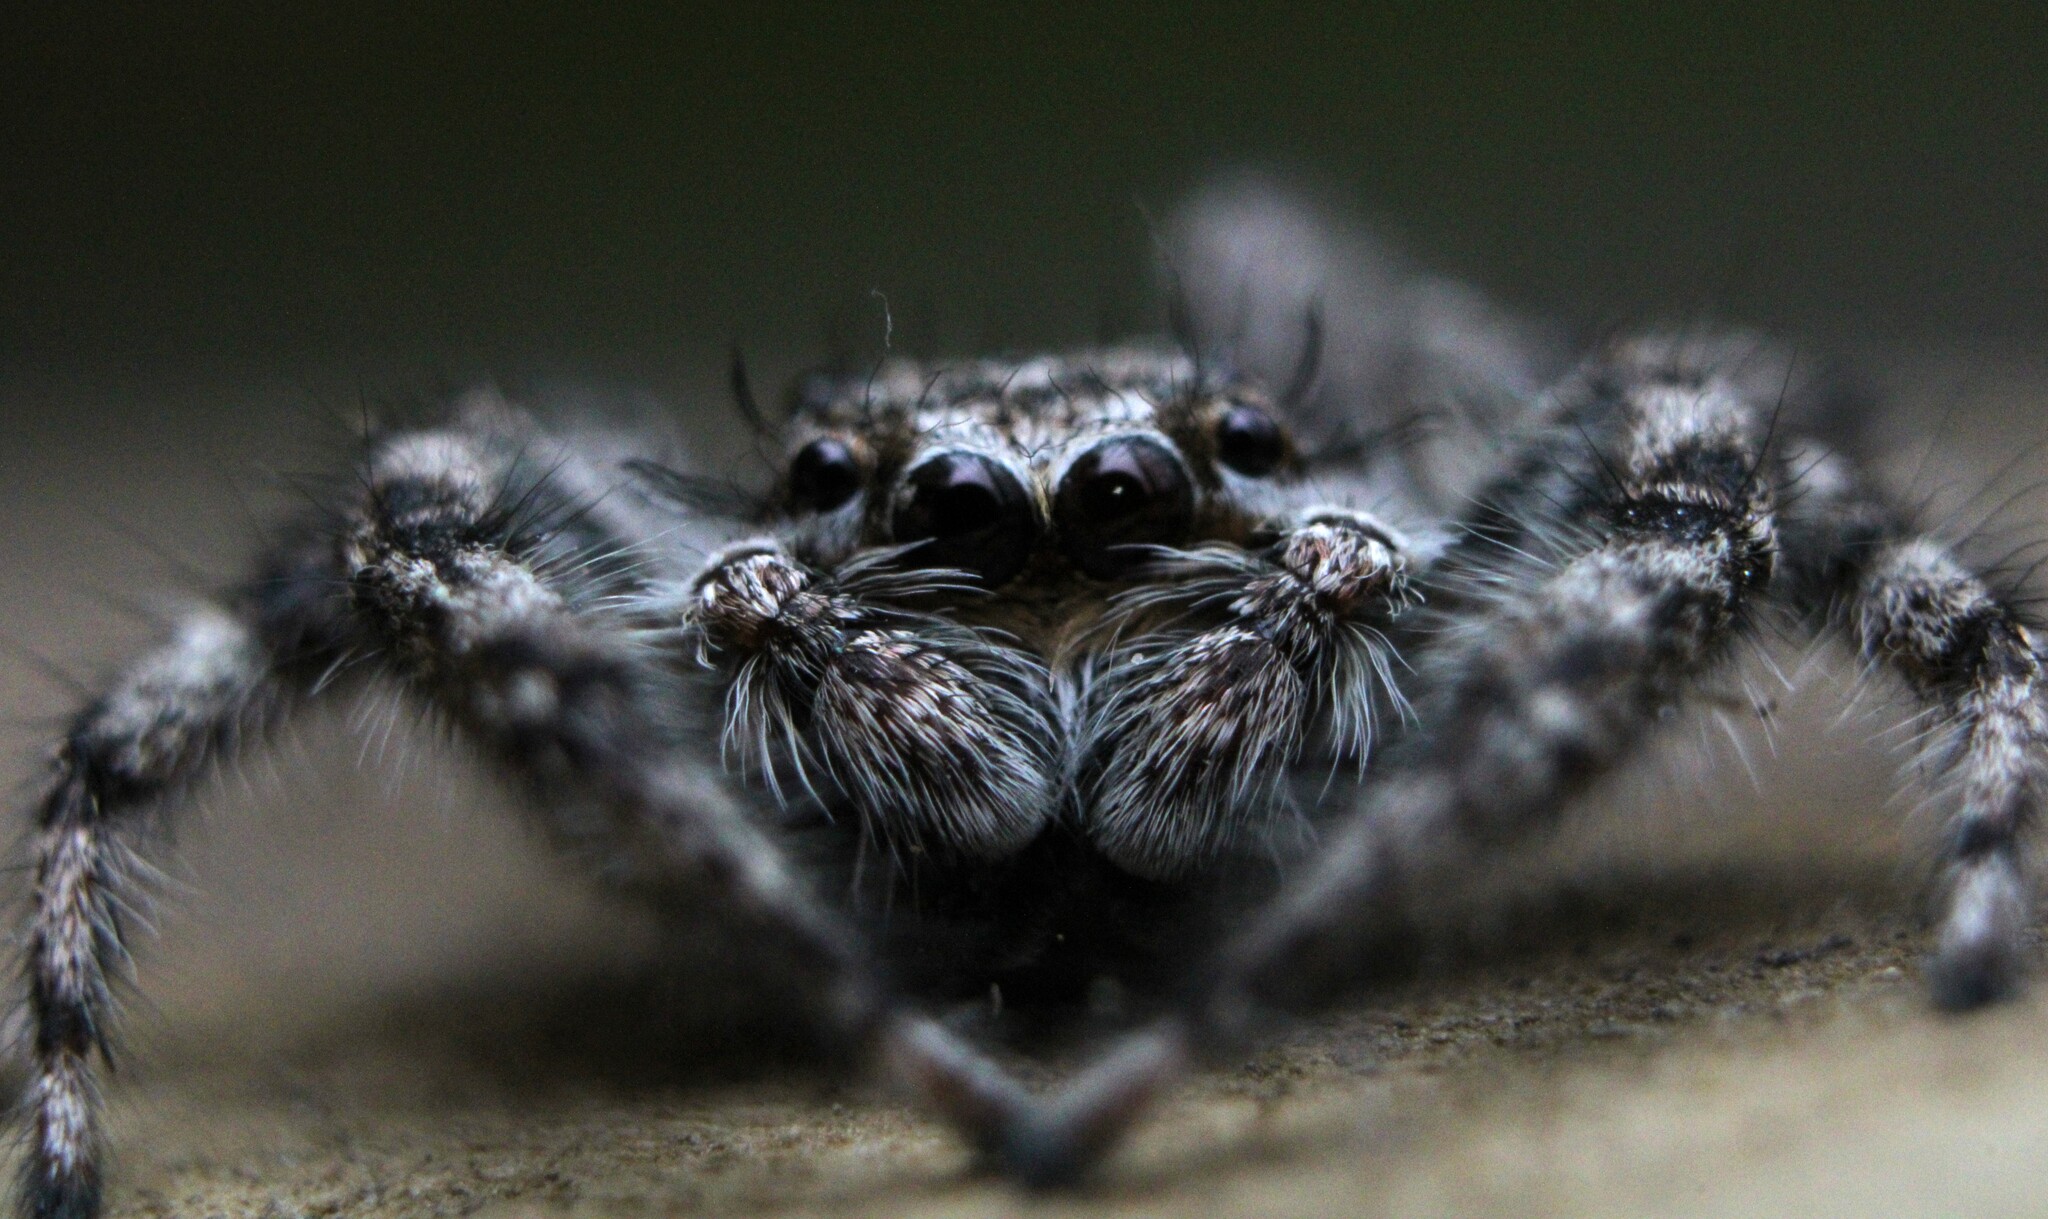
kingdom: Animalia
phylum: Arthropoda
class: Arachnida
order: Araneae
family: Salticidae
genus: Platycryptus
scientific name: Platycryptus undatus
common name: Tan jumping spider
